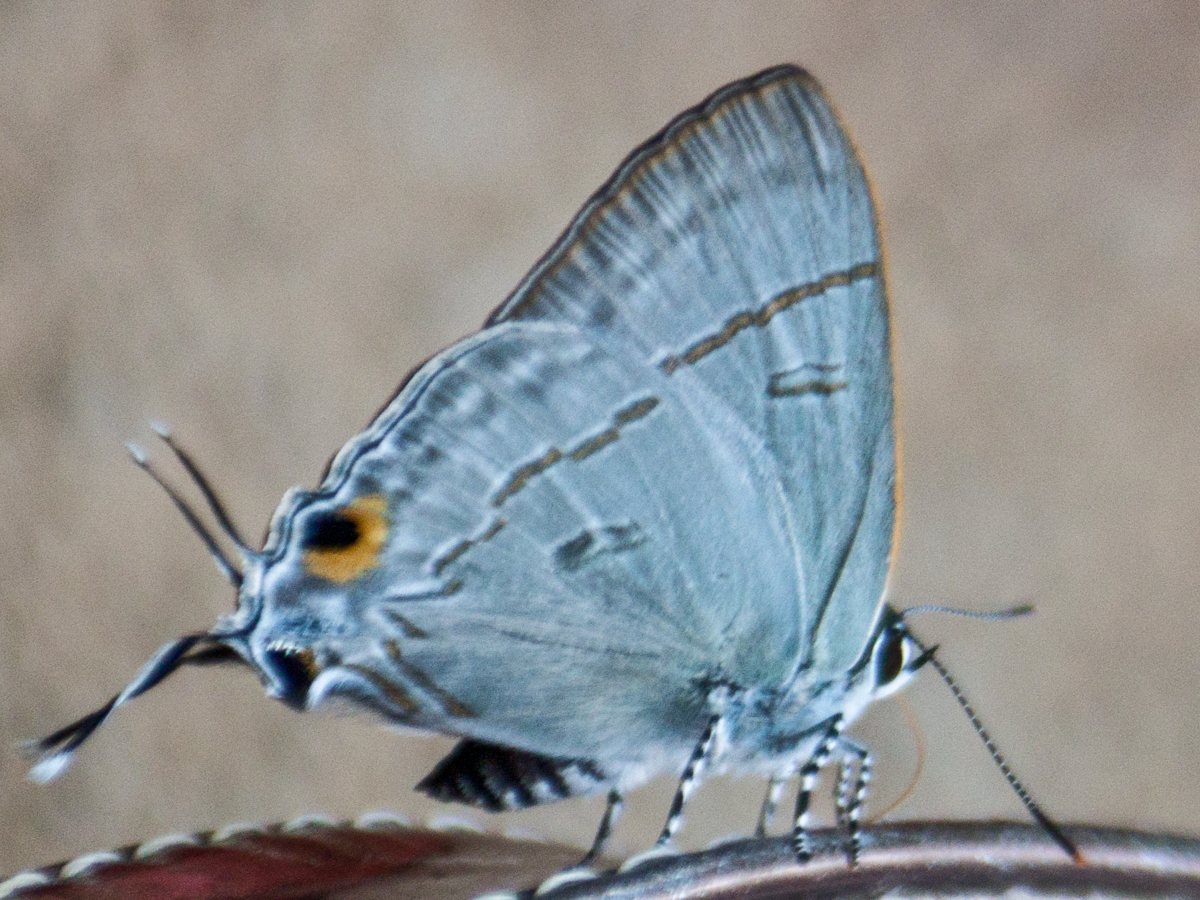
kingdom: Animalia
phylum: Arthropoda
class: Insecta
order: Lepidoptera
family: Lycaenidae
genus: Hypolycaena
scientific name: Hypolycaena erylus
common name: Common tit
